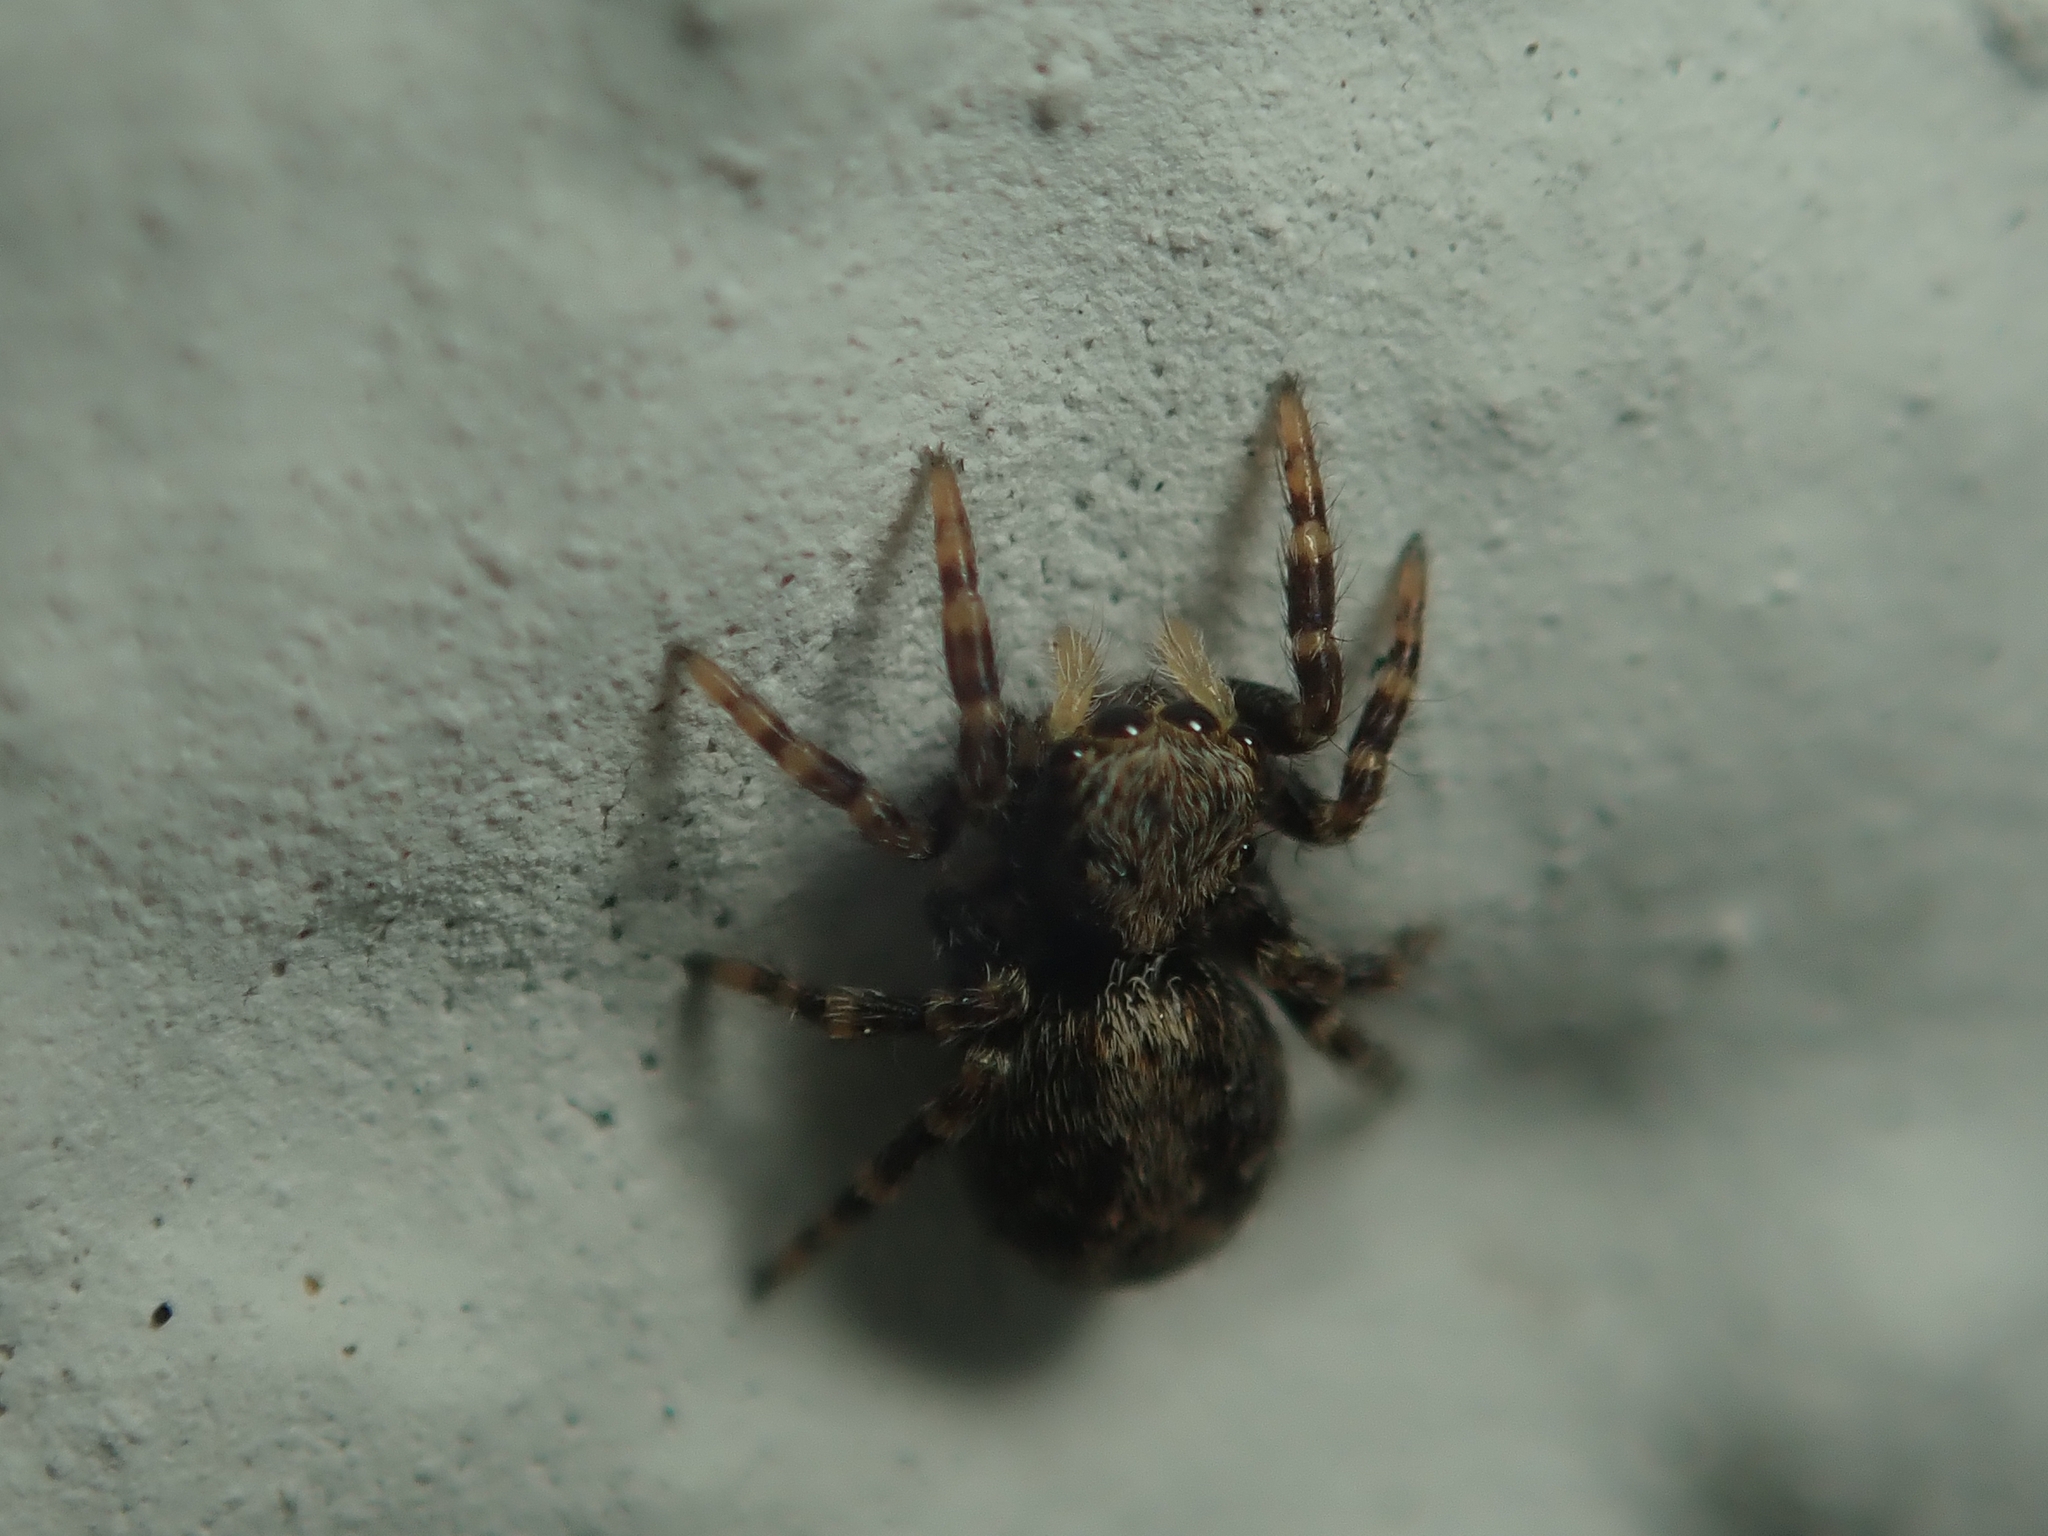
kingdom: Animalia
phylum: Arthropoda
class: Arachnida
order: Araneae
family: Salticidae
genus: Pseudeuophrys
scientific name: Pseudeuophrys lanigera
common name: Jumping spider
